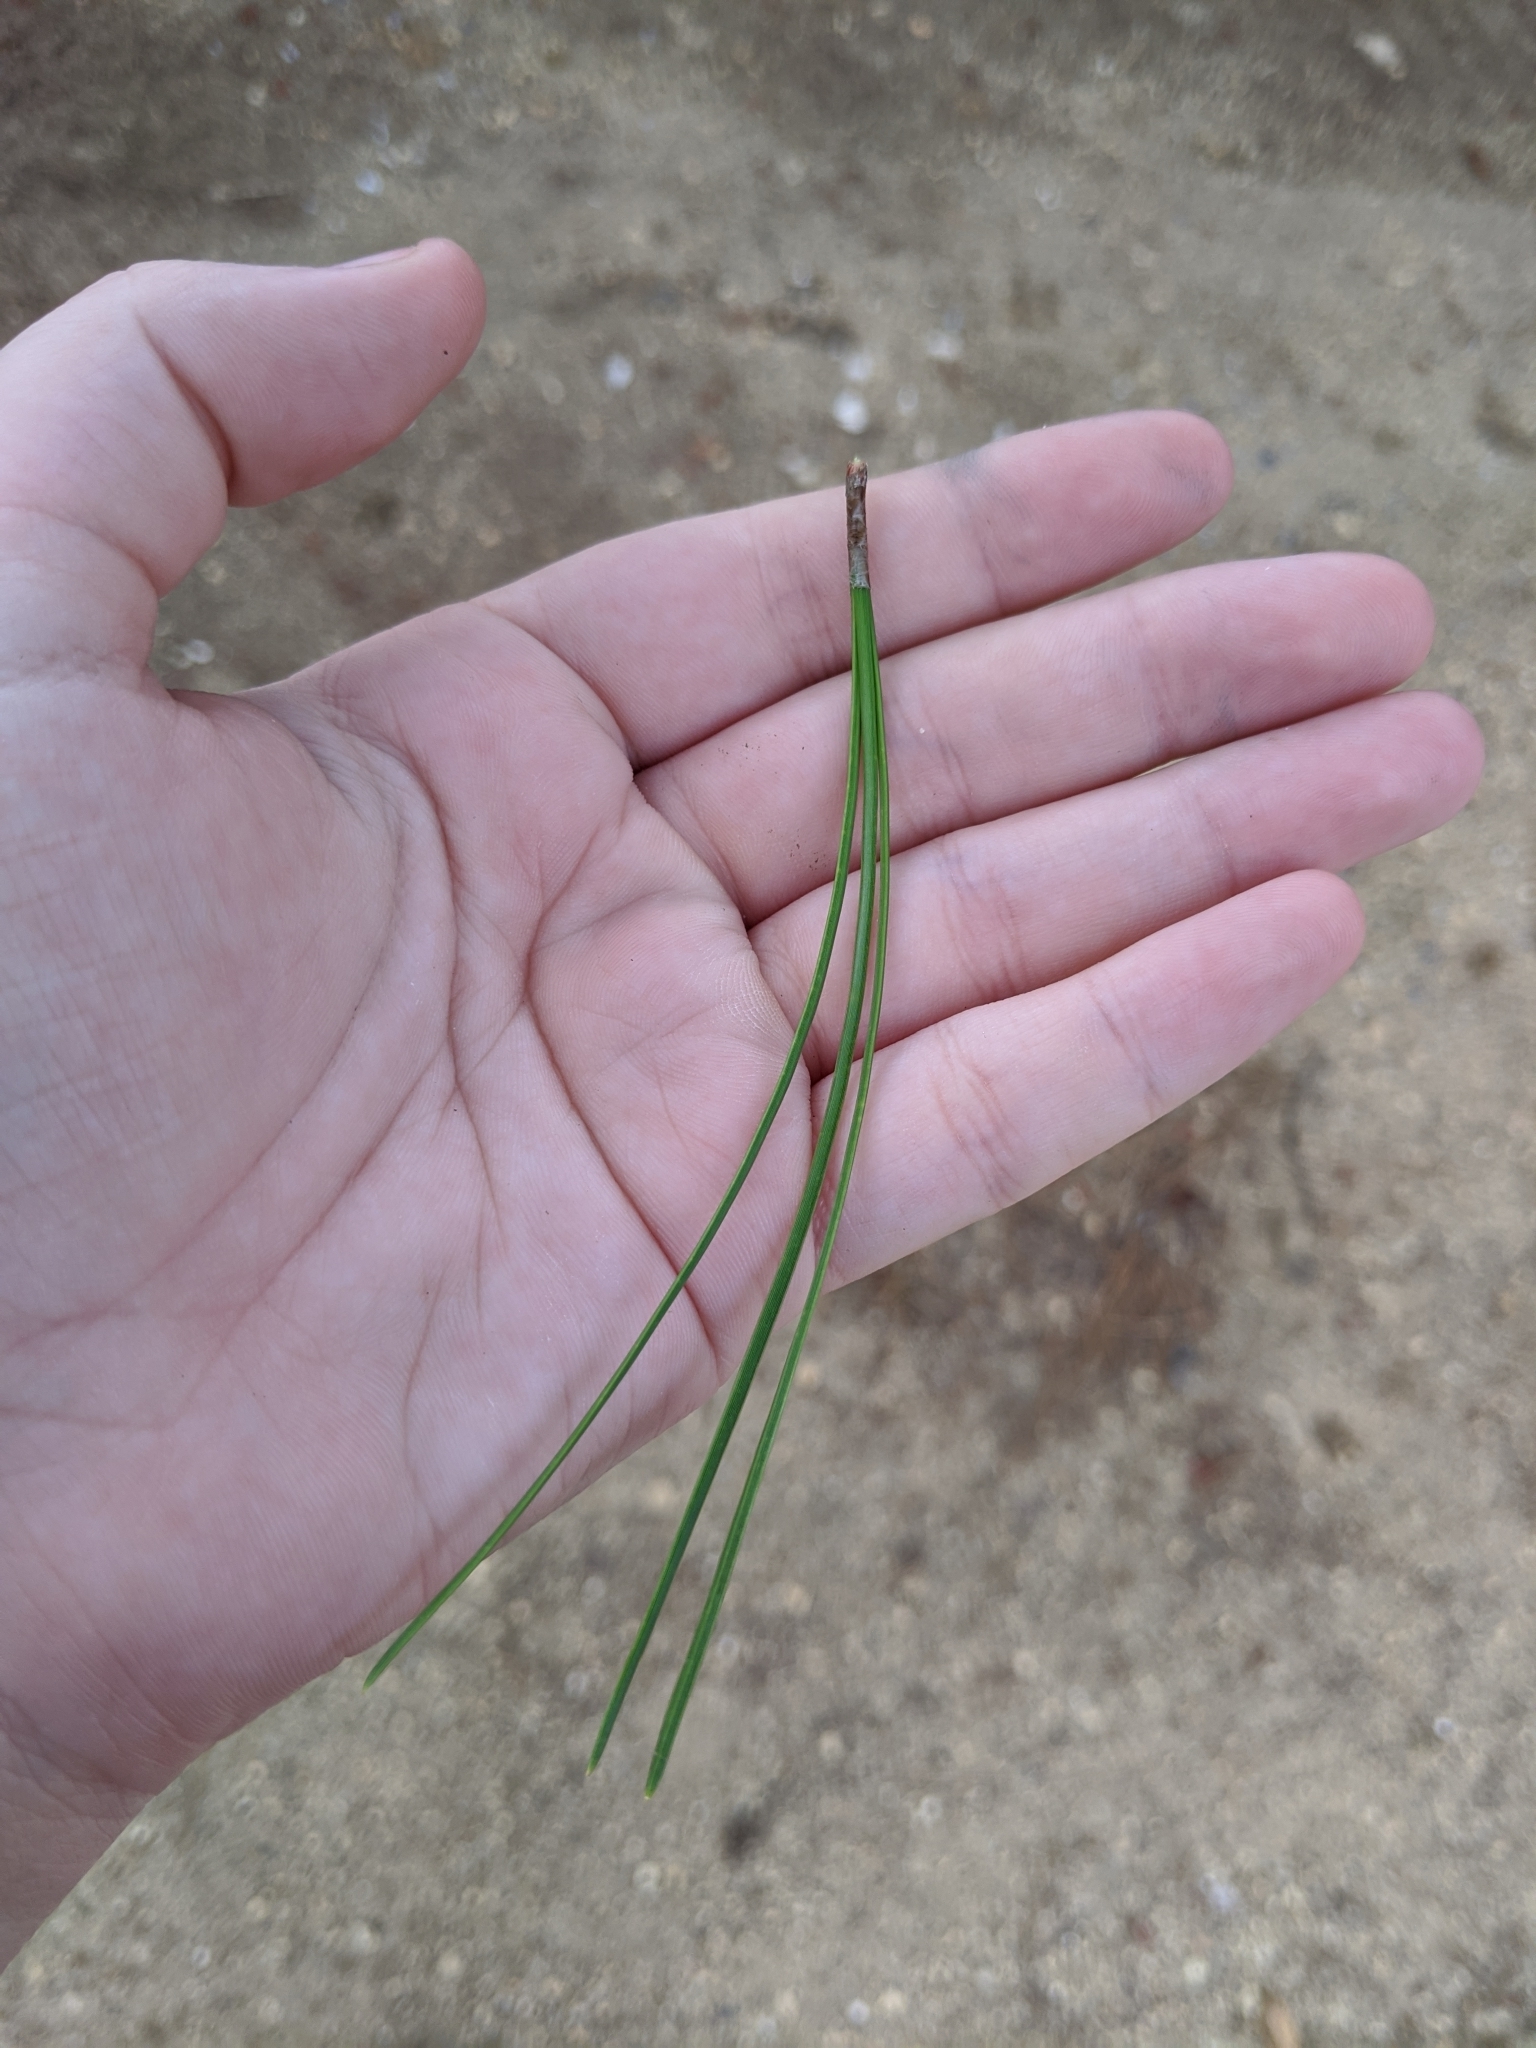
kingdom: Plantae
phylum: Tracheophyta
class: Pinopsida
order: Pinales
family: Pinaceae
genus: Pinus
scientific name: Pinus
